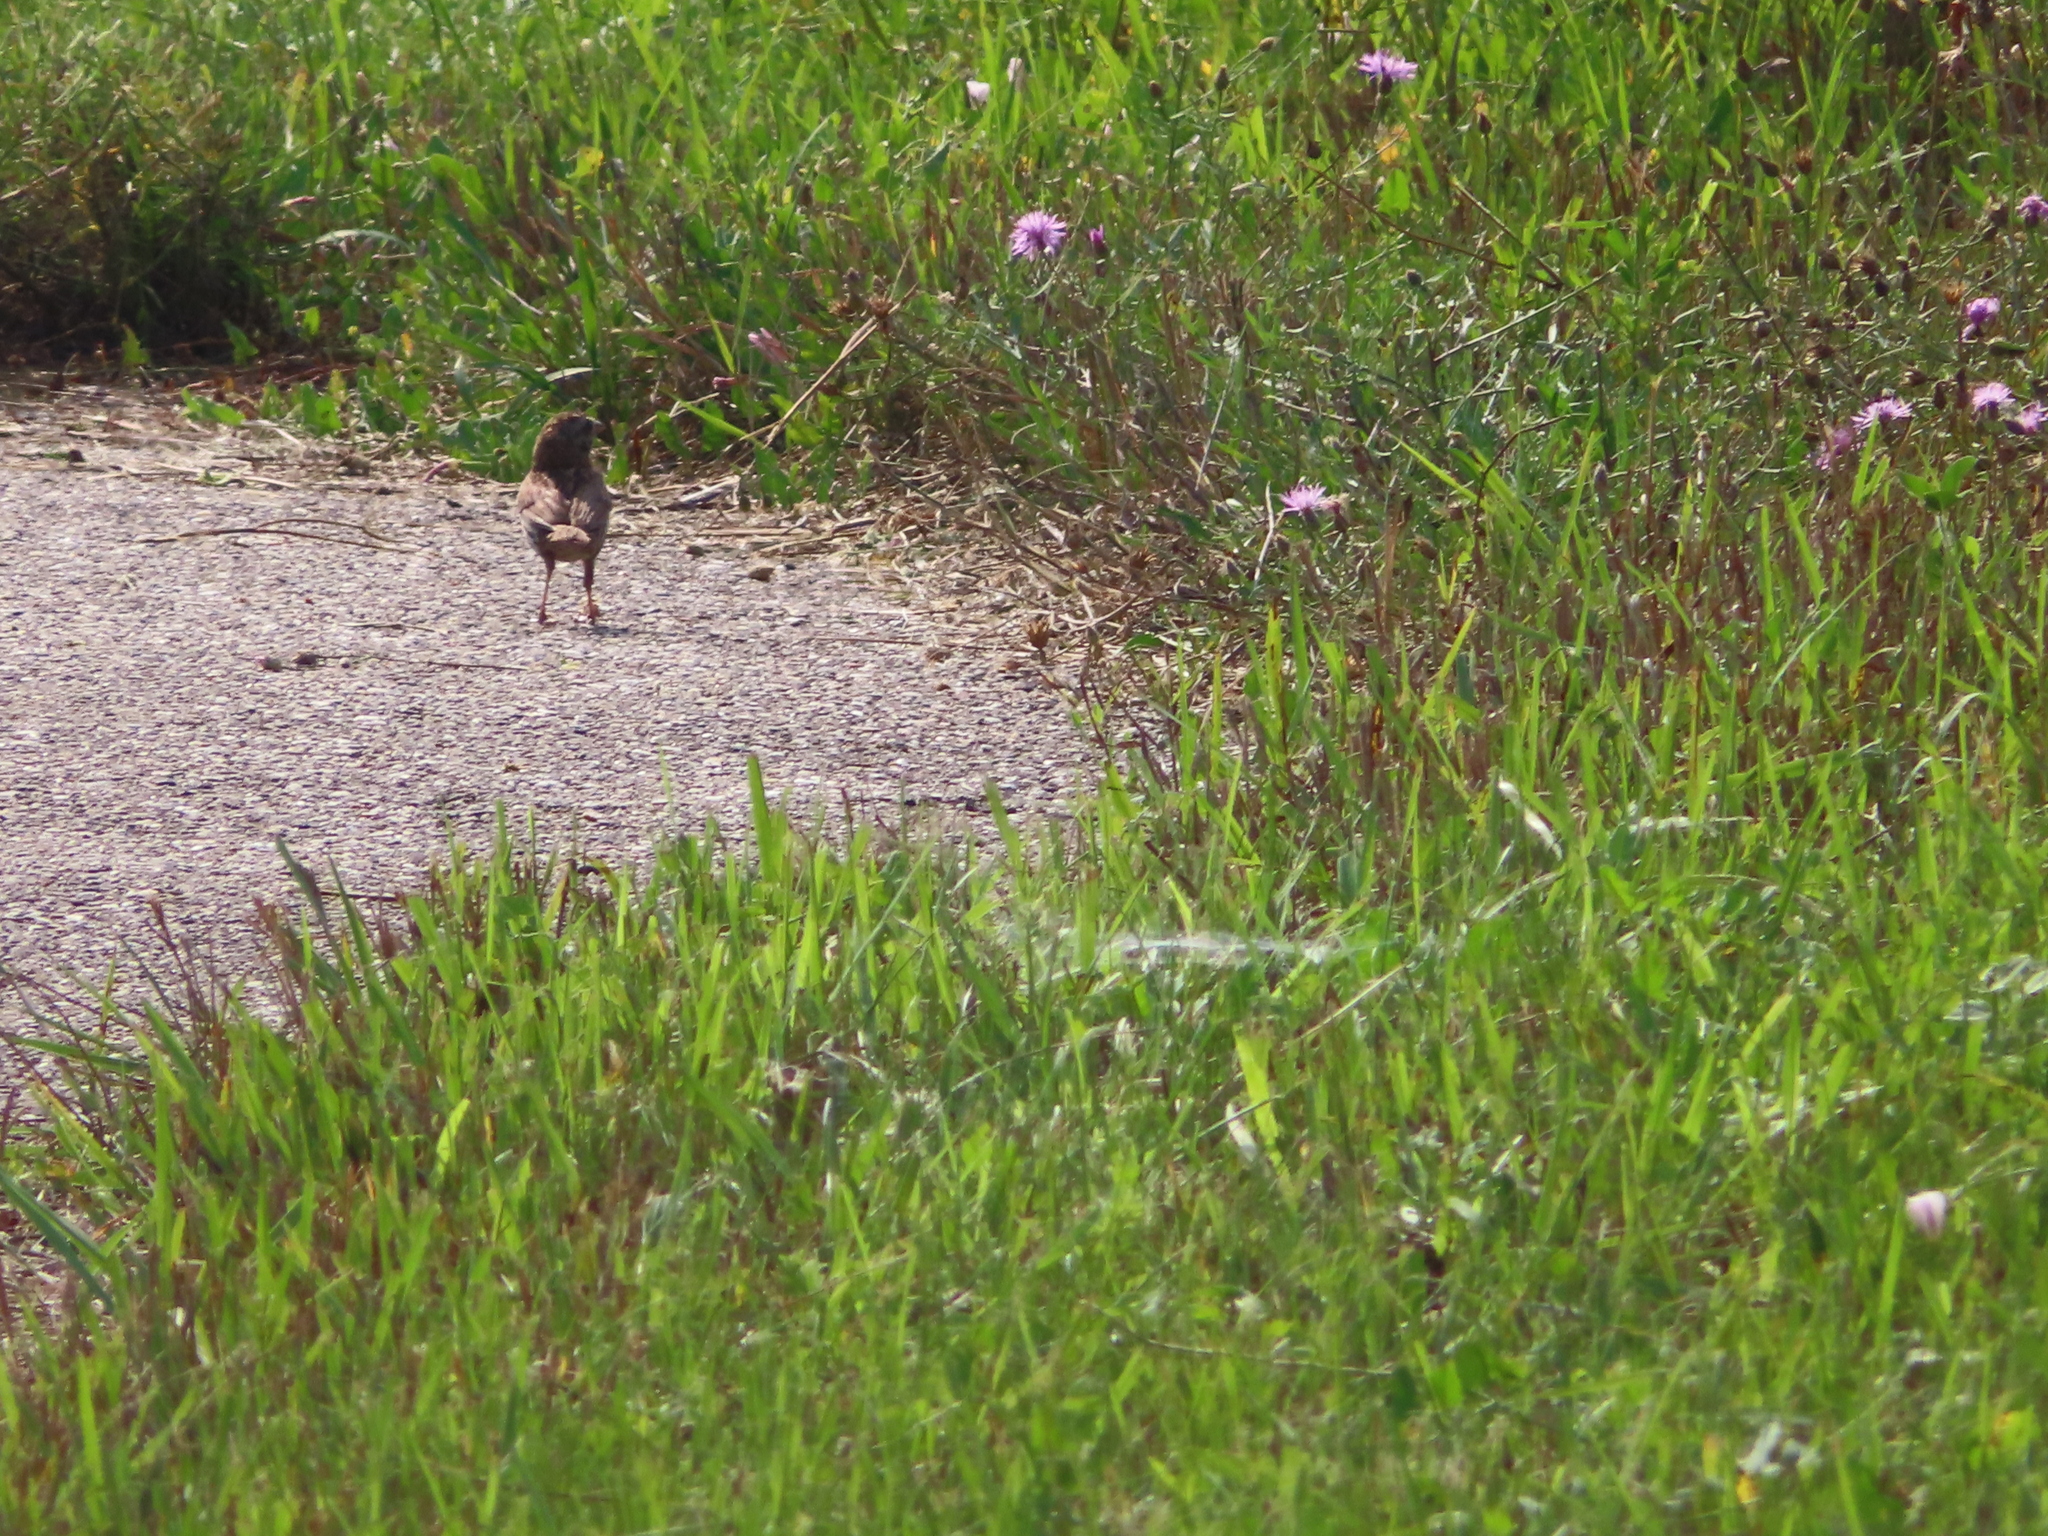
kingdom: Animalia
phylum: Chordata
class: Aves
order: Passeriformes
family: Passerellidae
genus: Melospiza
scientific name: Melospiza melodia
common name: Song sparrow
